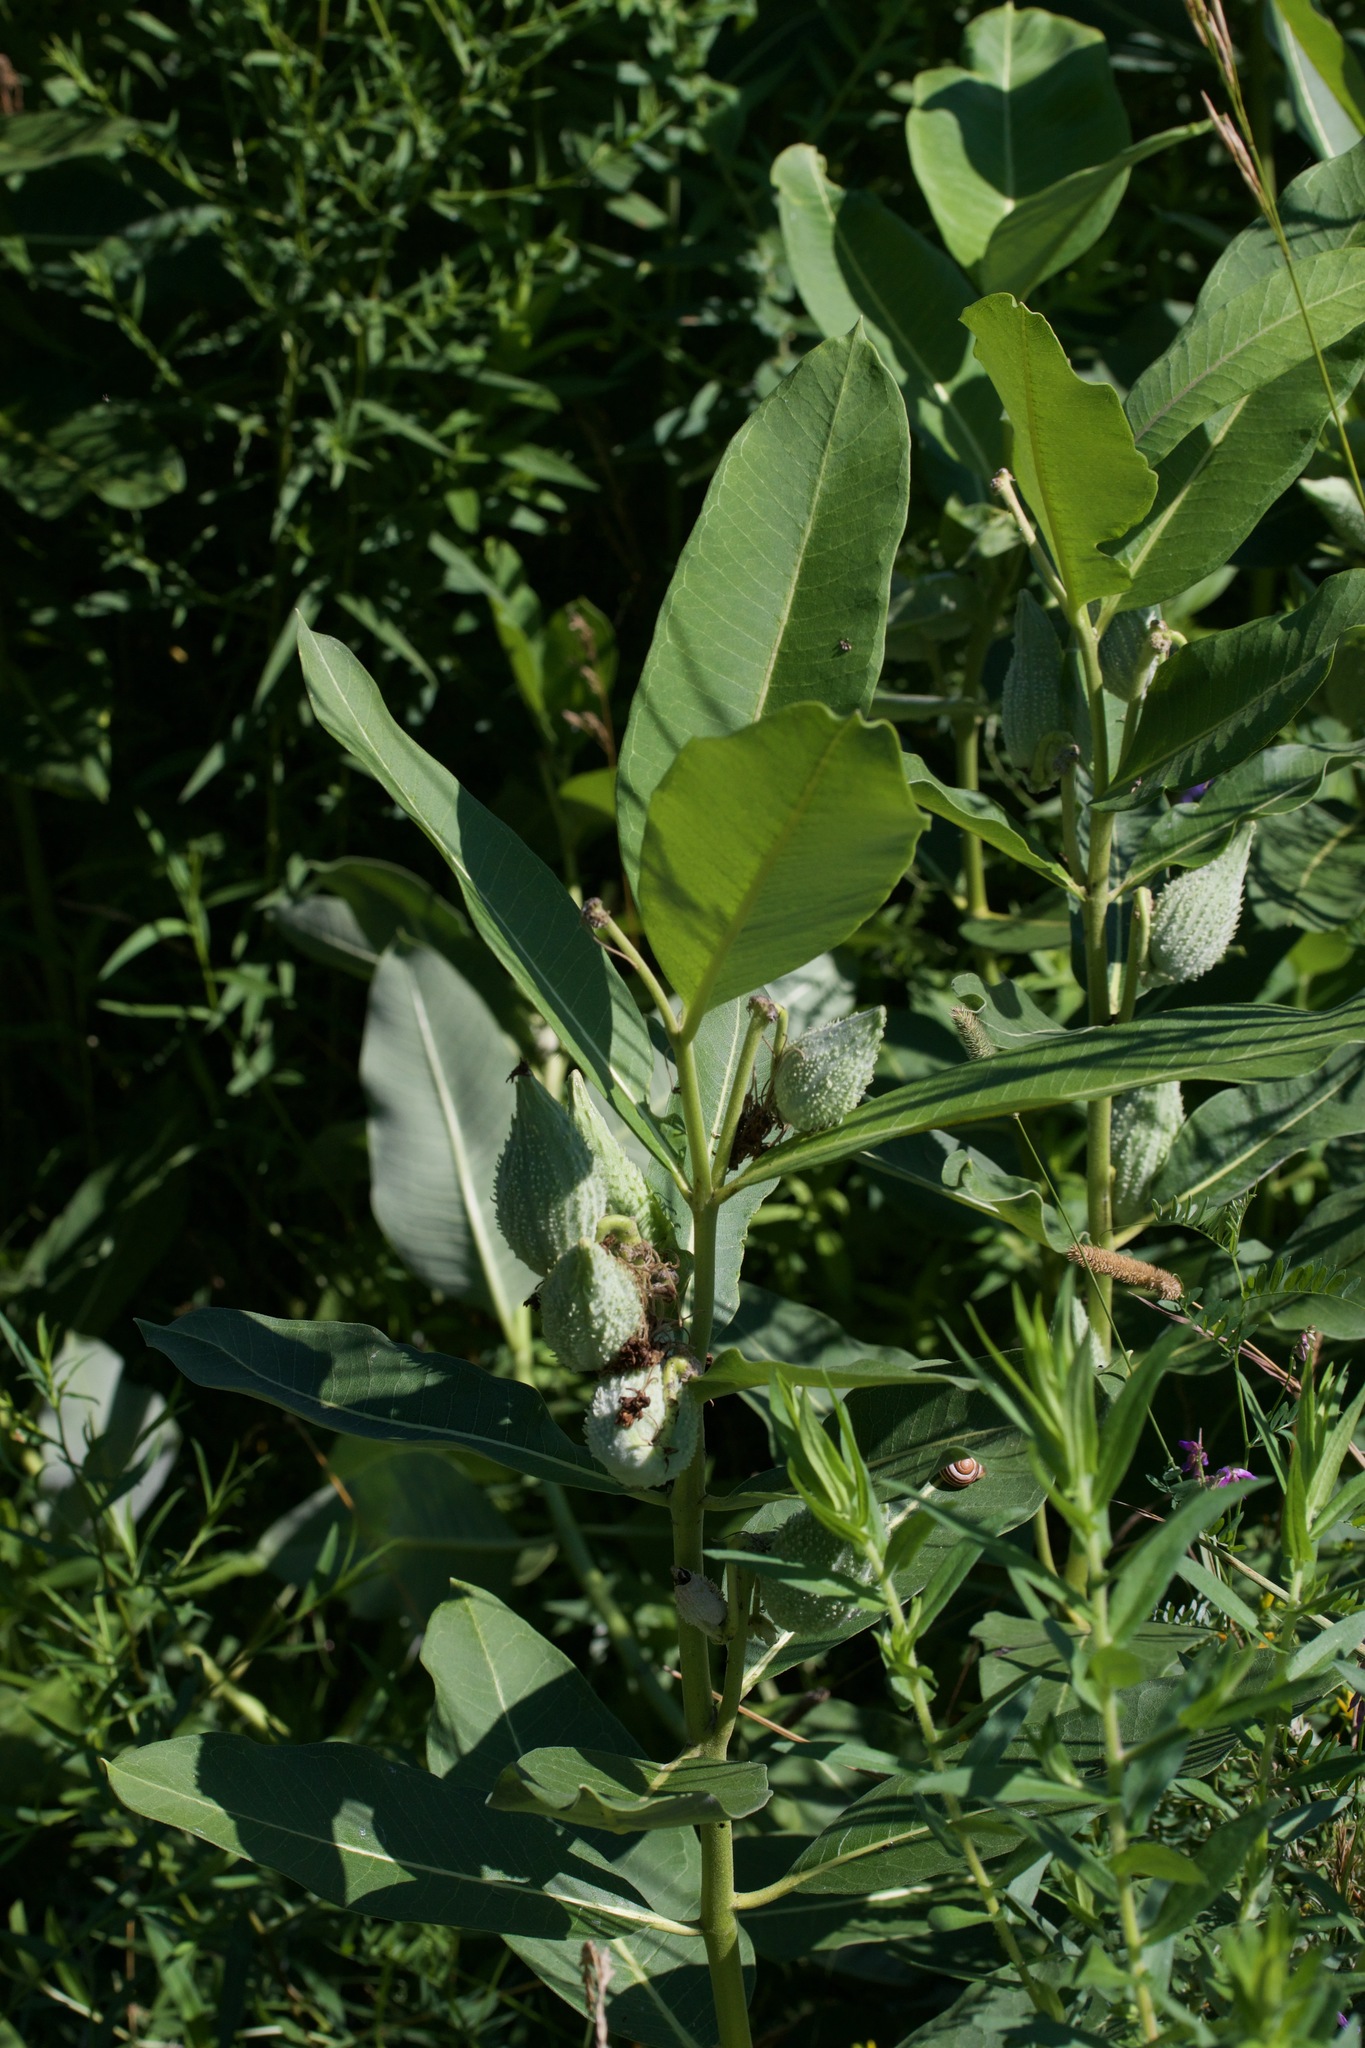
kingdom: Plantae
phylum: Tracheophyta
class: Magnoliopsida
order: Gentianales
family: Apocynaceae
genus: Asclepias
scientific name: Asclepias syriaca
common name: Common milkweed
